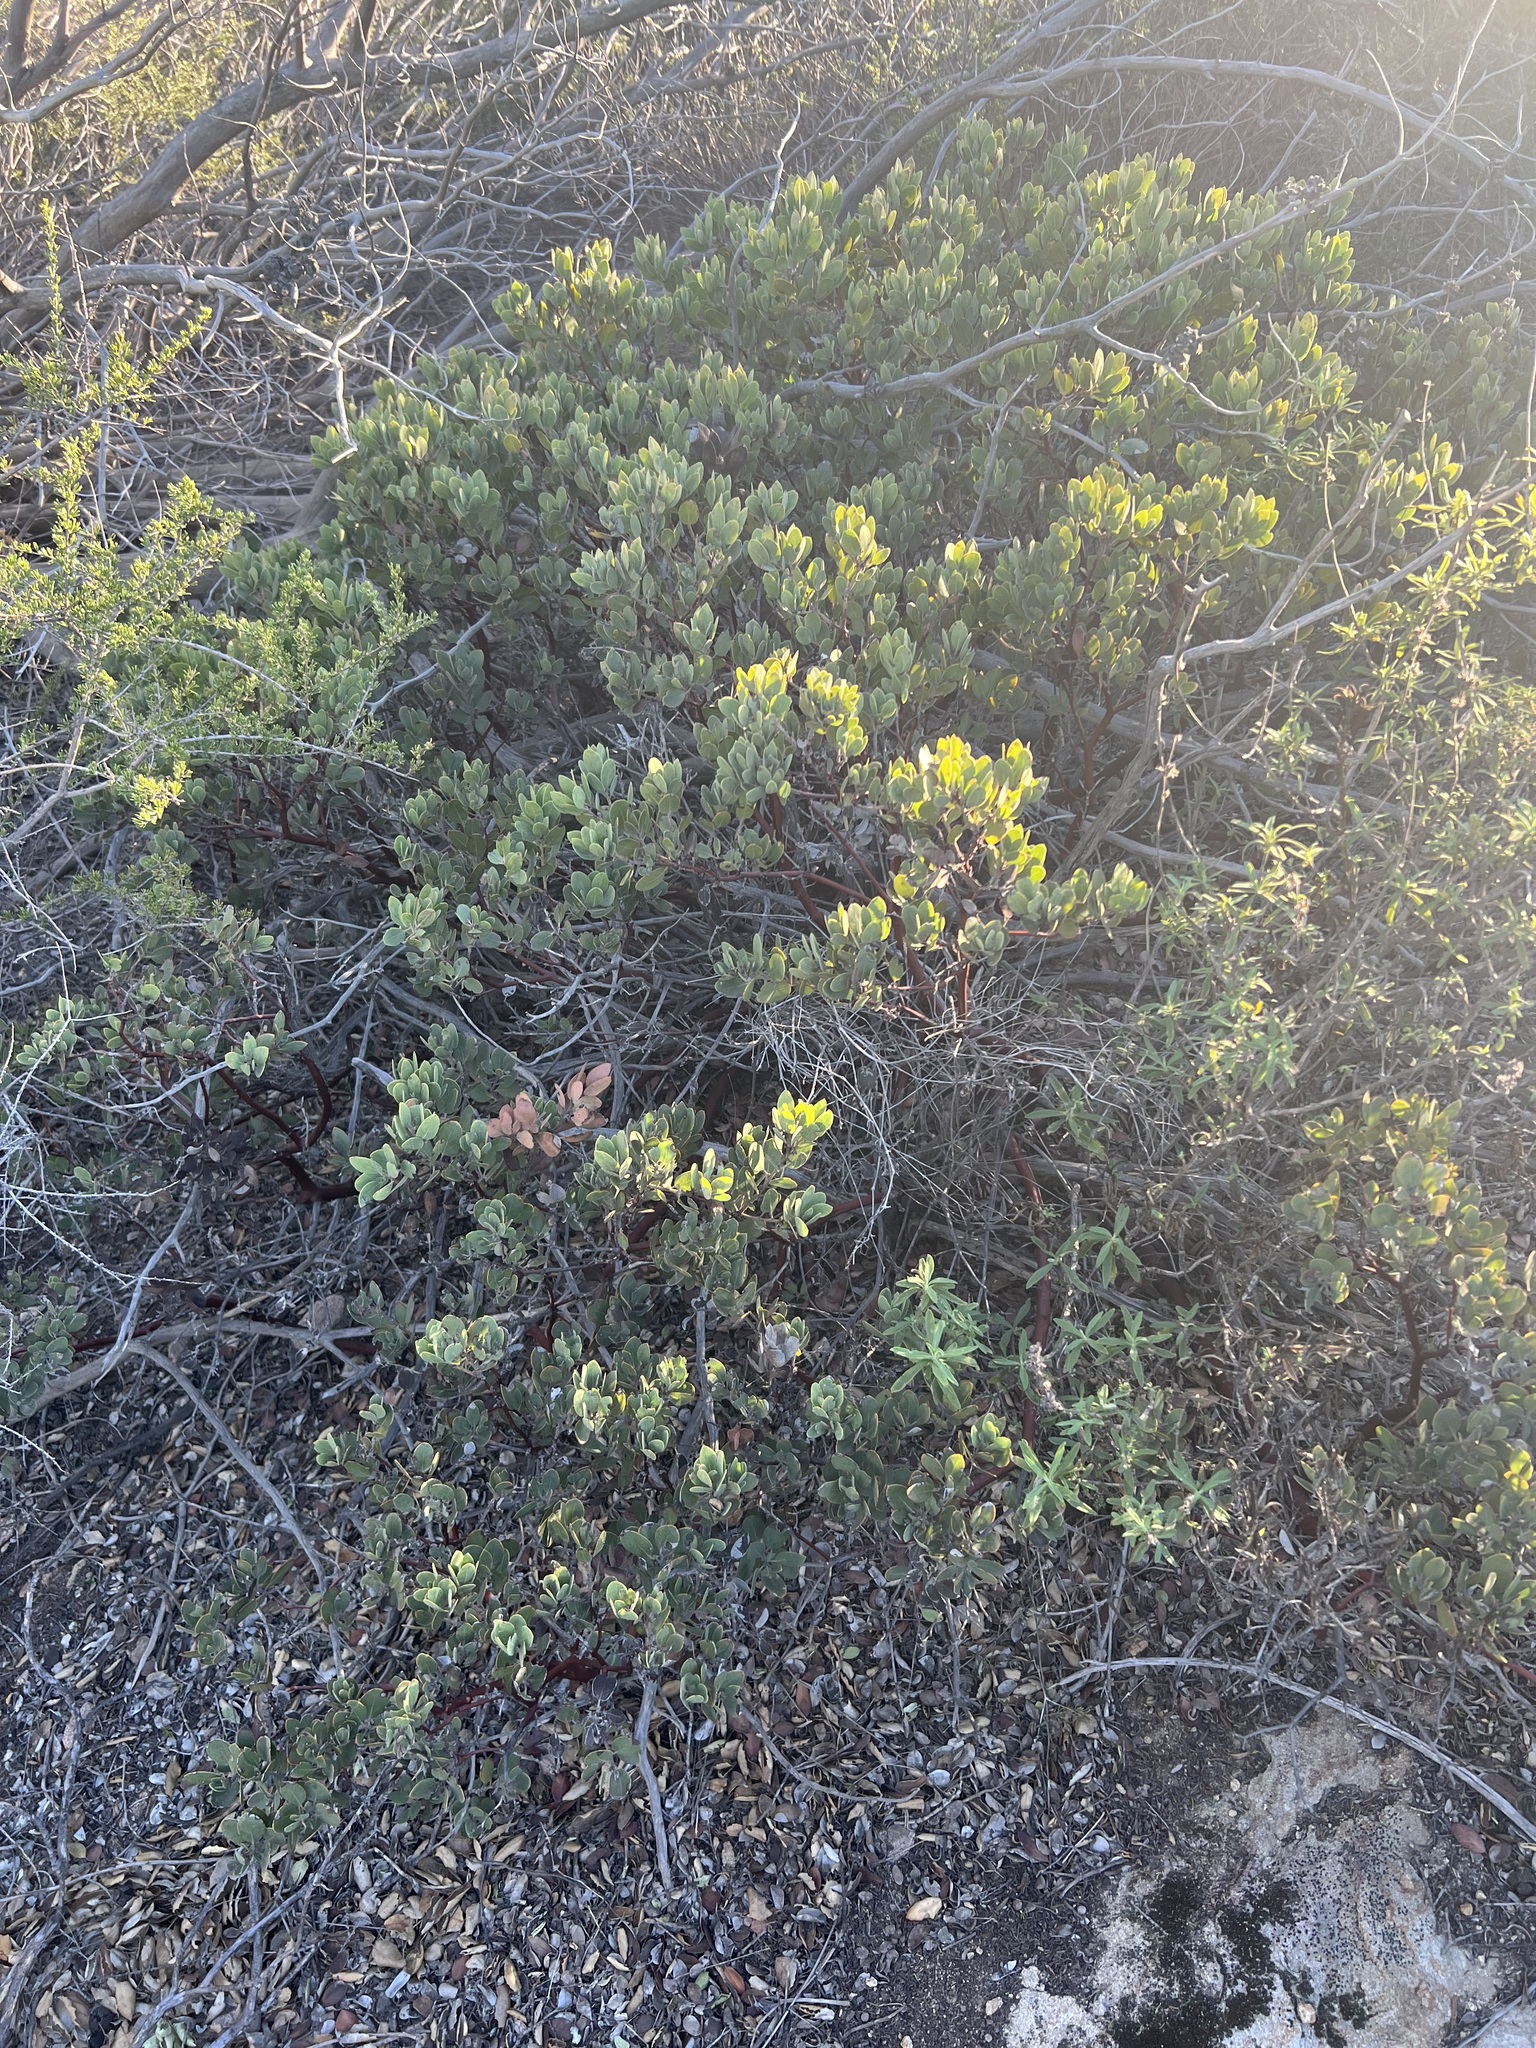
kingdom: Plantae
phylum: Tracheophyta
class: Magnoliopsida
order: Ericales
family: Ericaceae
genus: Arctostaphylos
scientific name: Arctostaphylos glandulosa
